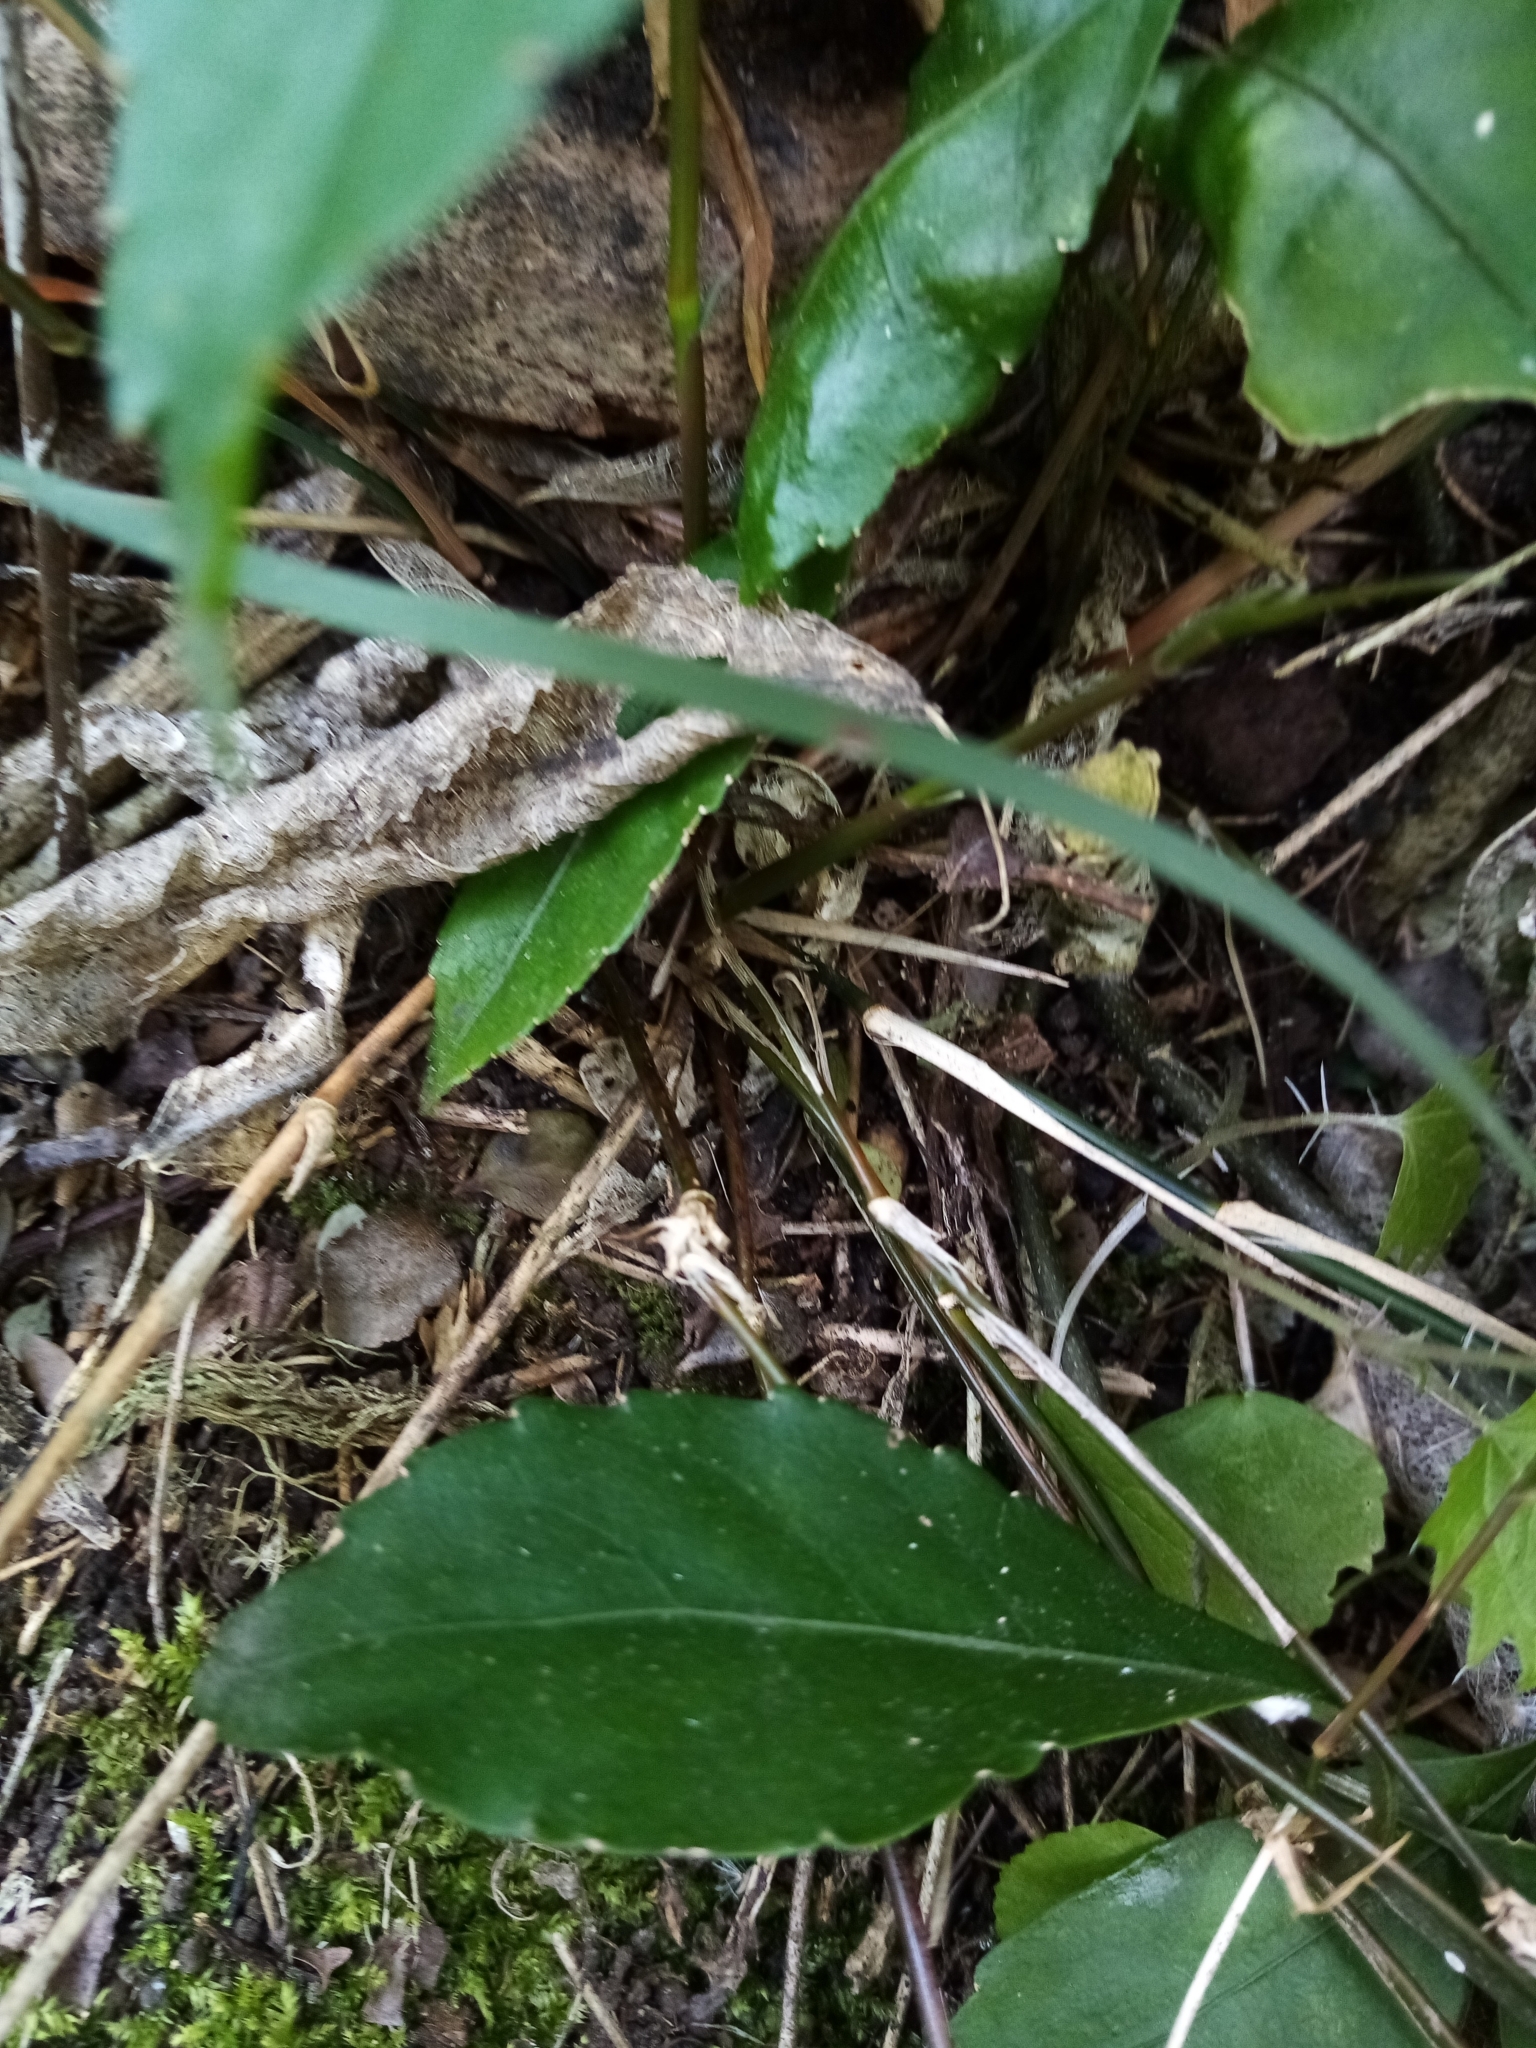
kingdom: Plantae
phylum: Tracheophyta
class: Liliopsida
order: Poales
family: Poaceae
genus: Microlaena
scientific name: Microlaena polynoda
